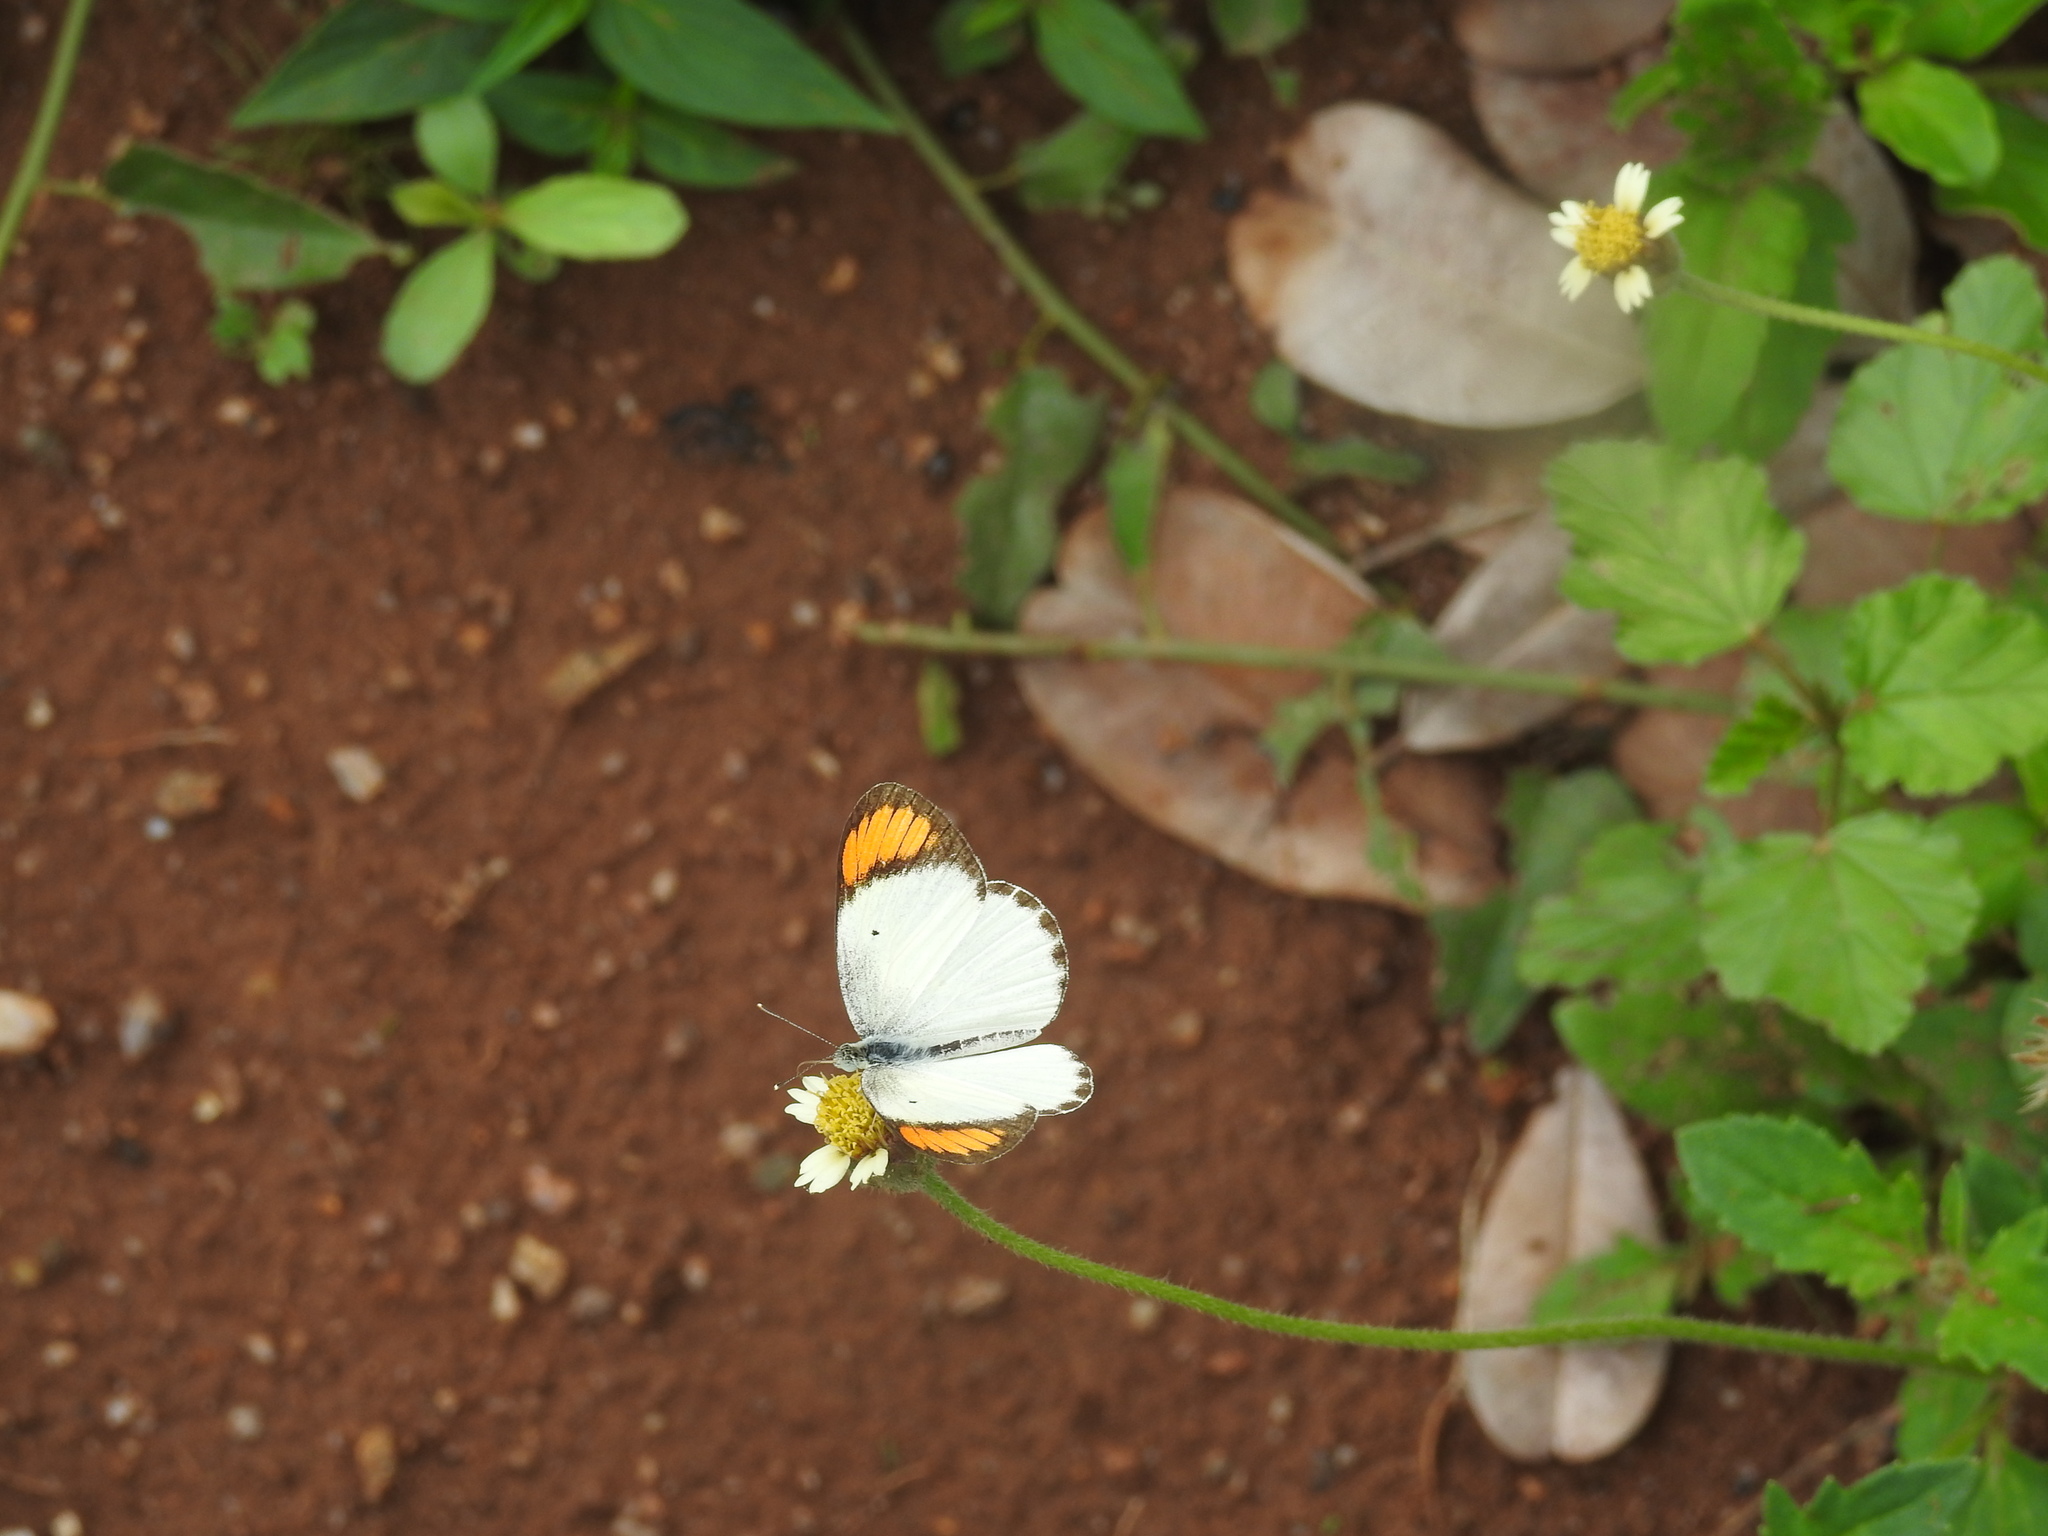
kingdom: Animalia
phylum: Arthropoda
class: Insecta
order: Lepidoptera
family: Pieridae
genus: Colotis
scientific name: Colotis etrida
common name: Little orange tip
